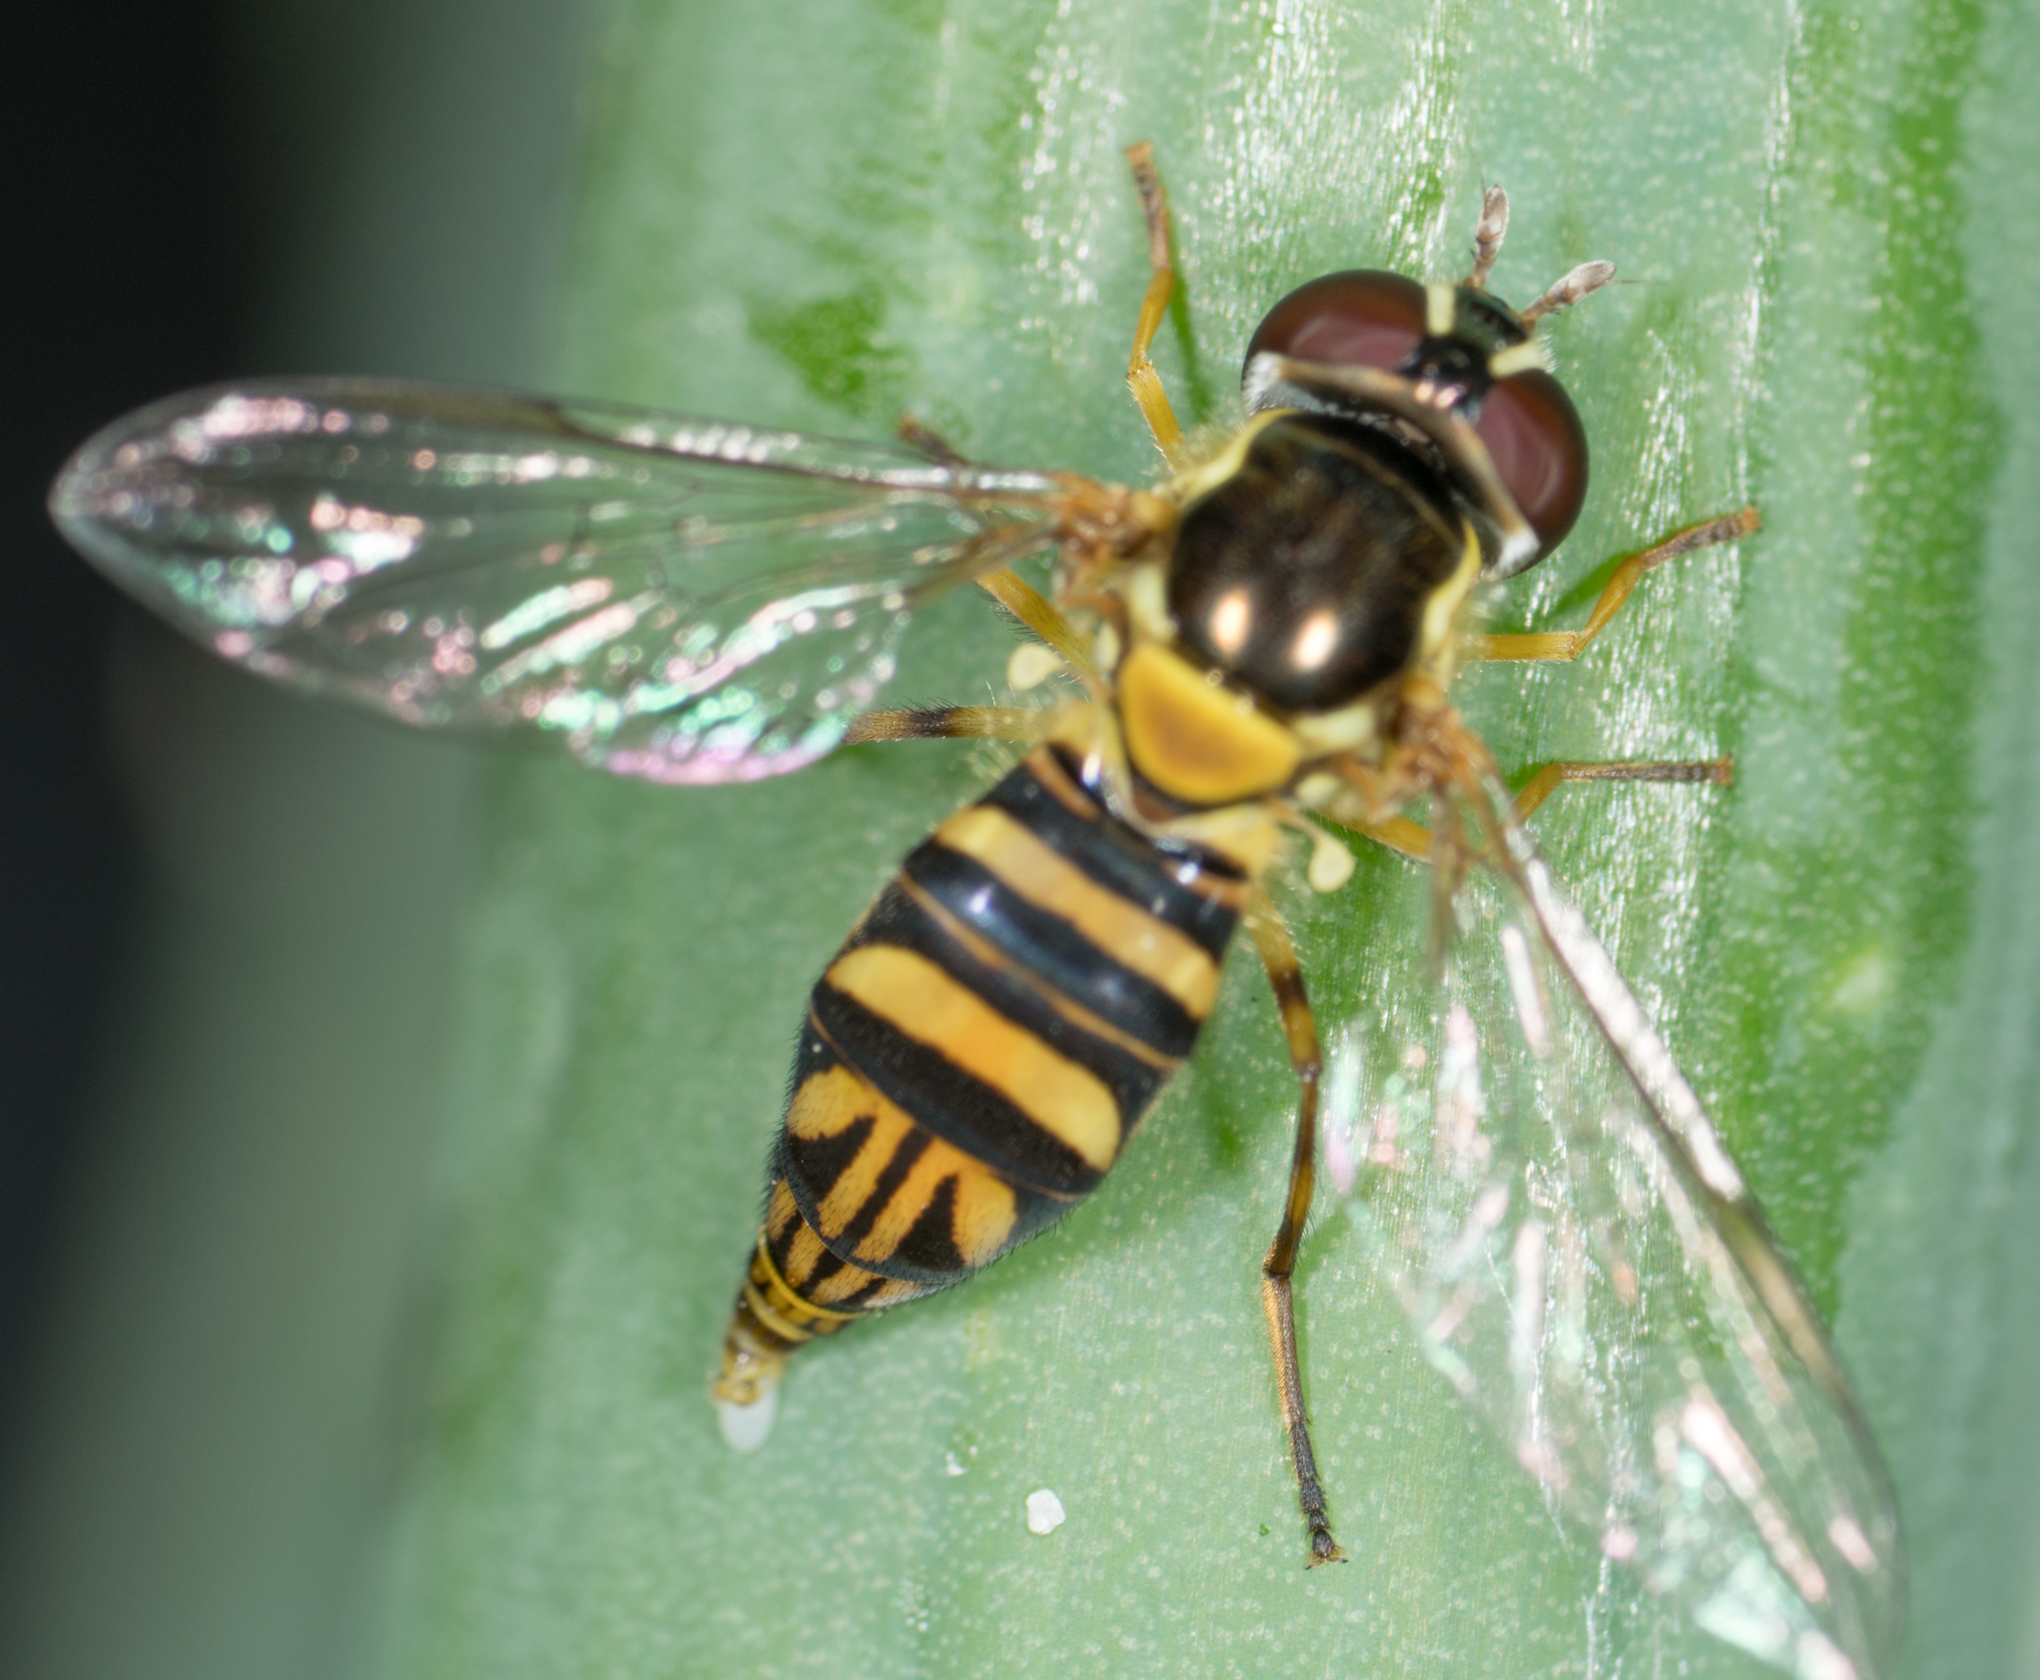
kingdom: Animalia
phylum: Arthropoda
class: Insecta
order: Diptera
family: Syrphidae
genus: Allograpta
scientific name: Allograpta obliqua
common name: Common oblique syrphid
